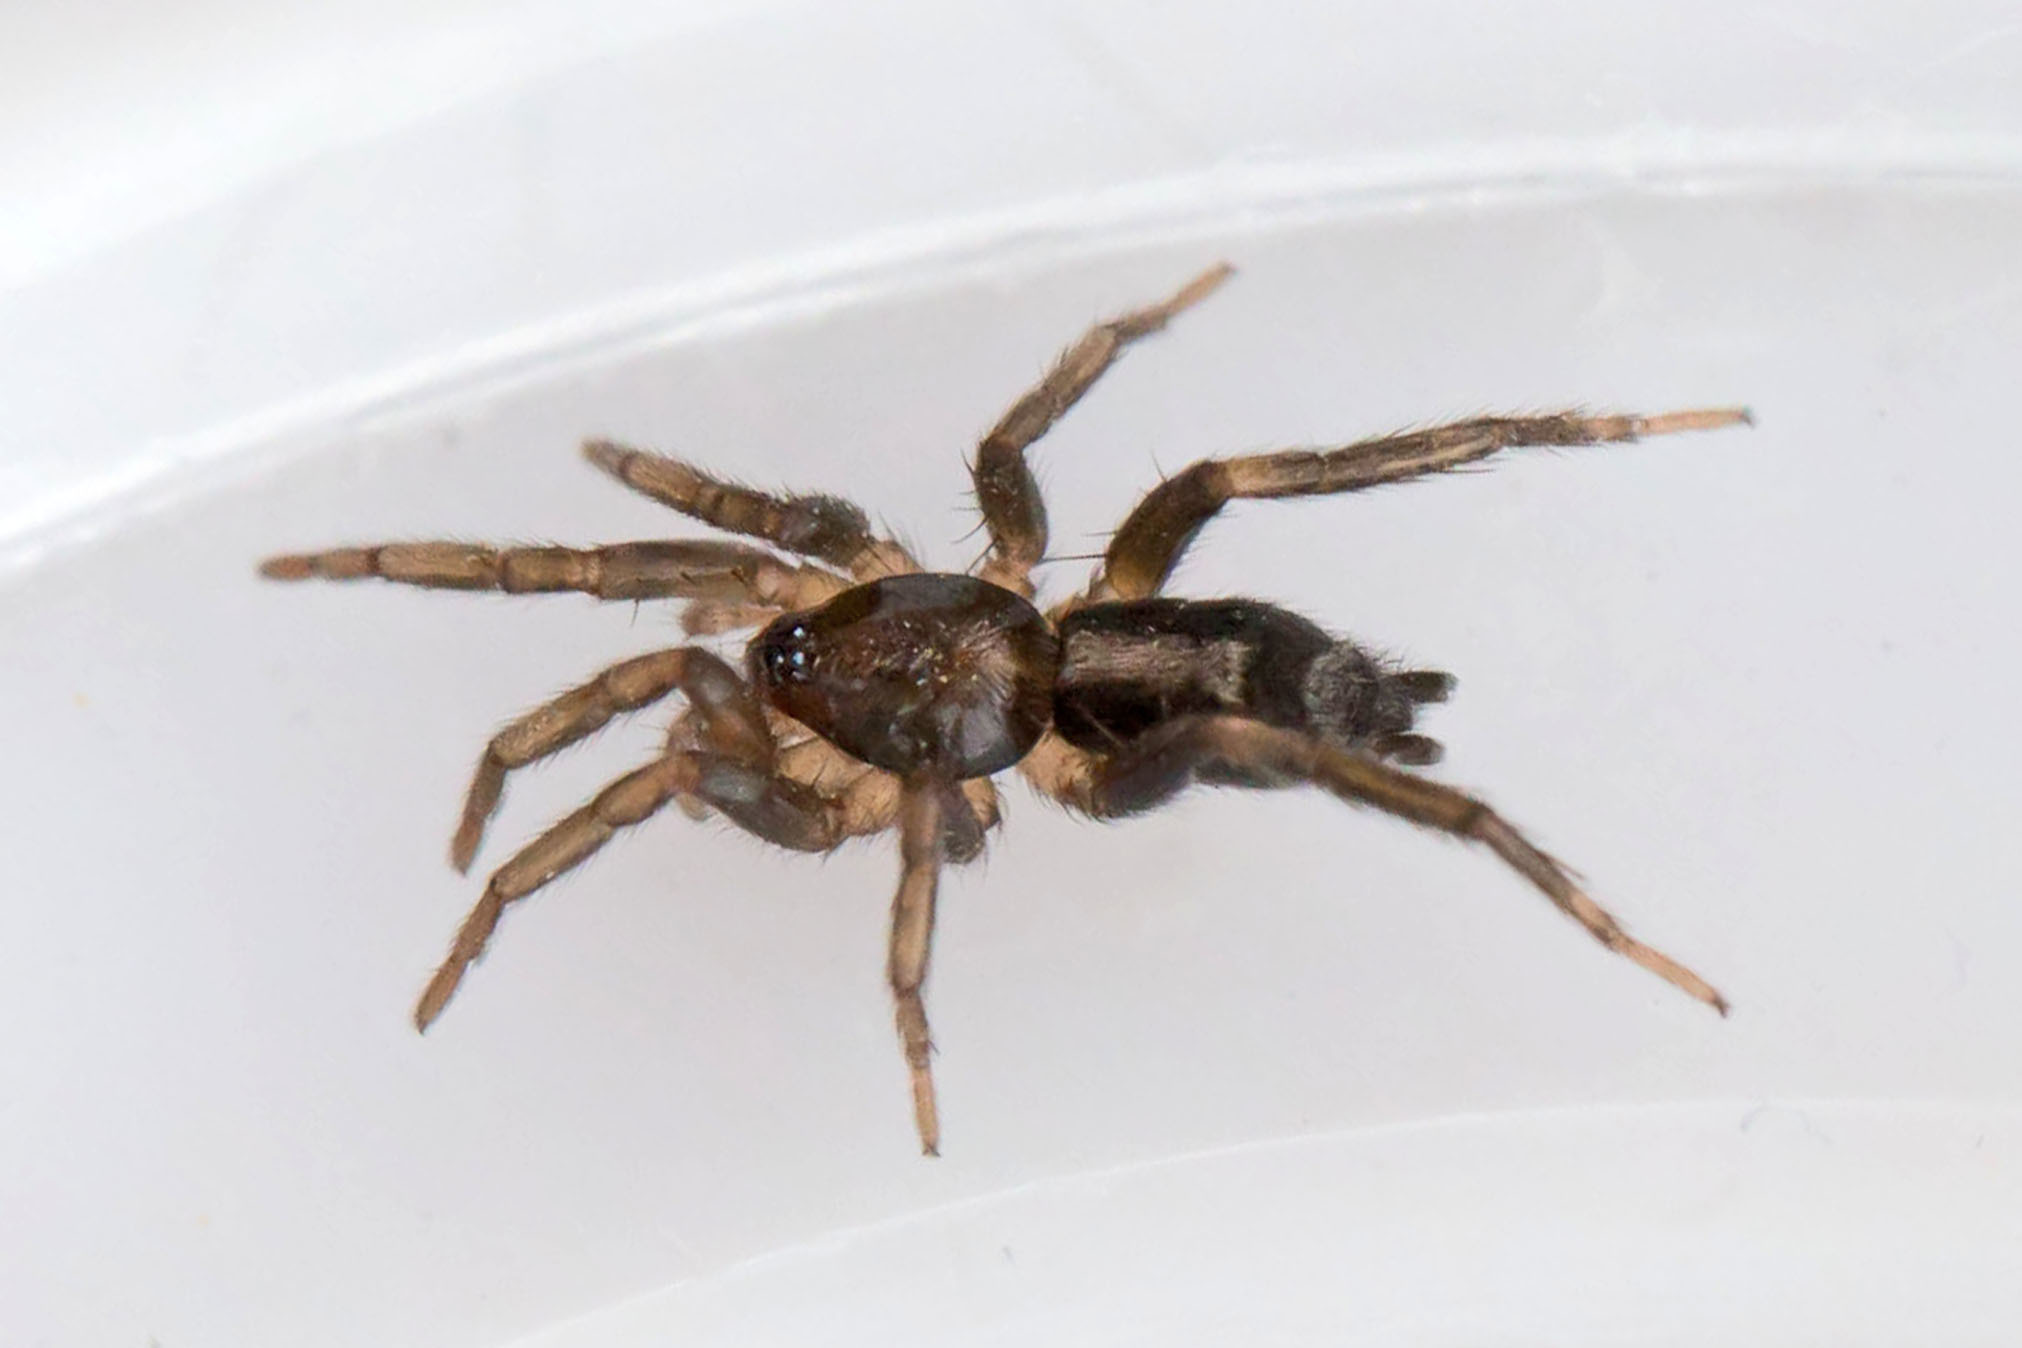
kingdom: Animalia
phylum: Arthropoda
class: Arachnida
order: Araneae
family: Gnaphosidae
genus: Herpyllus
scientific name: Herpyllus ecclesiasticus
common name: Eastern parson spider
